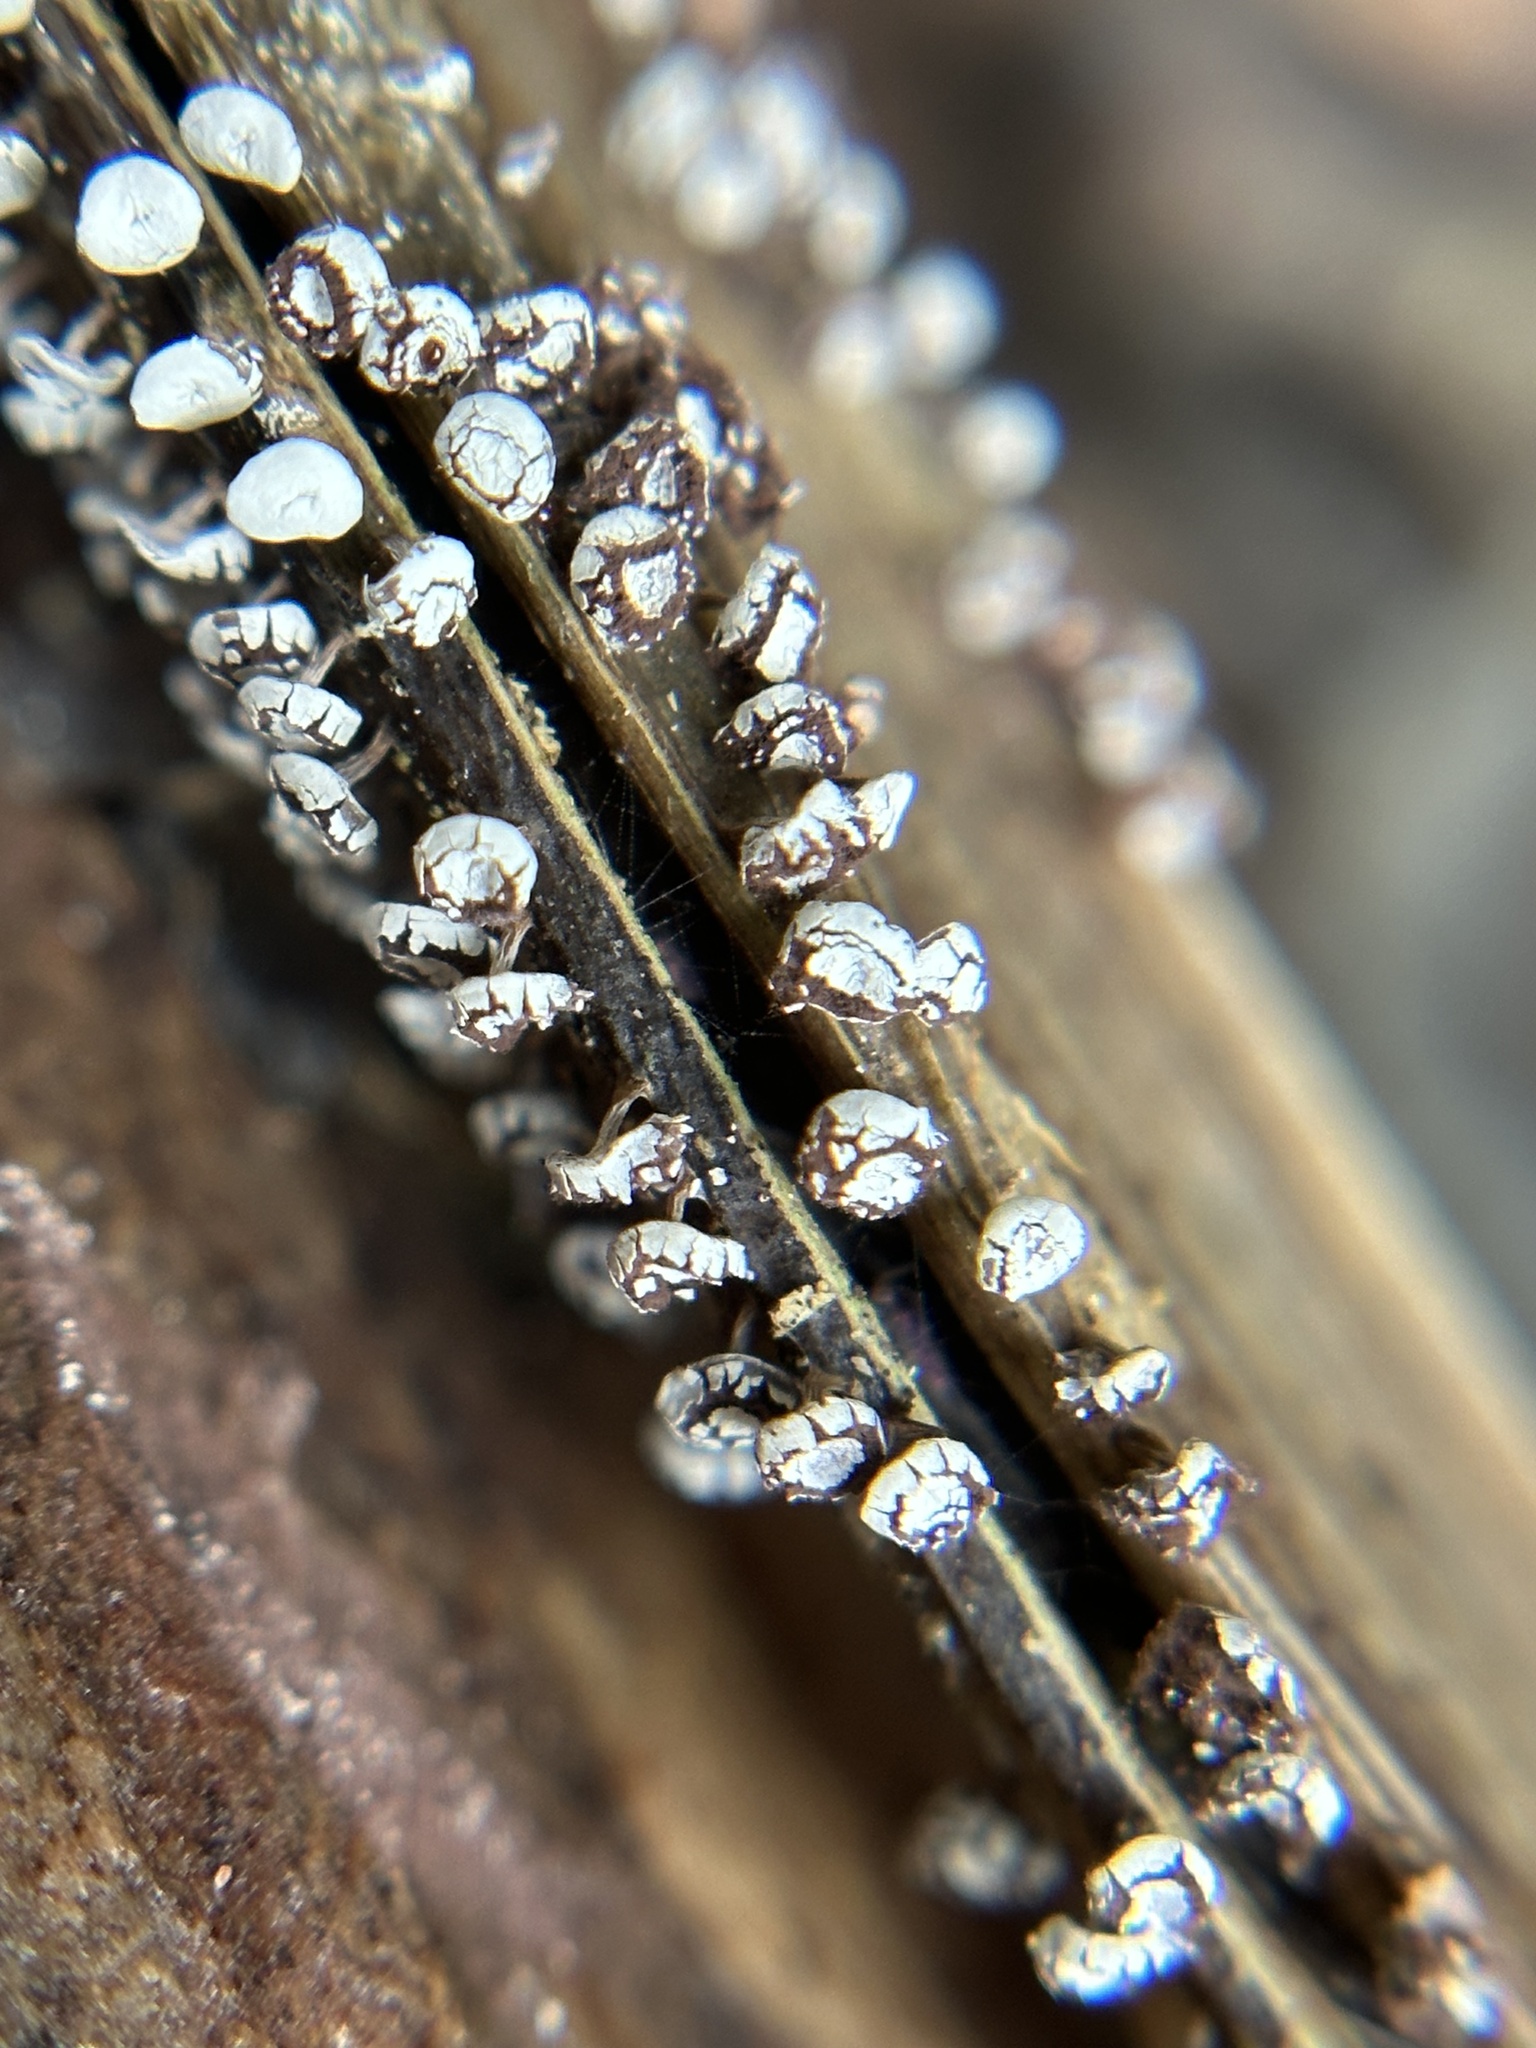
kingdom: Protozoa
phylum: Mycetozoa
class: Myxomycetes
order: Physarales
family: Didymiaceae
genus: Diderma
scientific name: Diderma hemisphaericum
